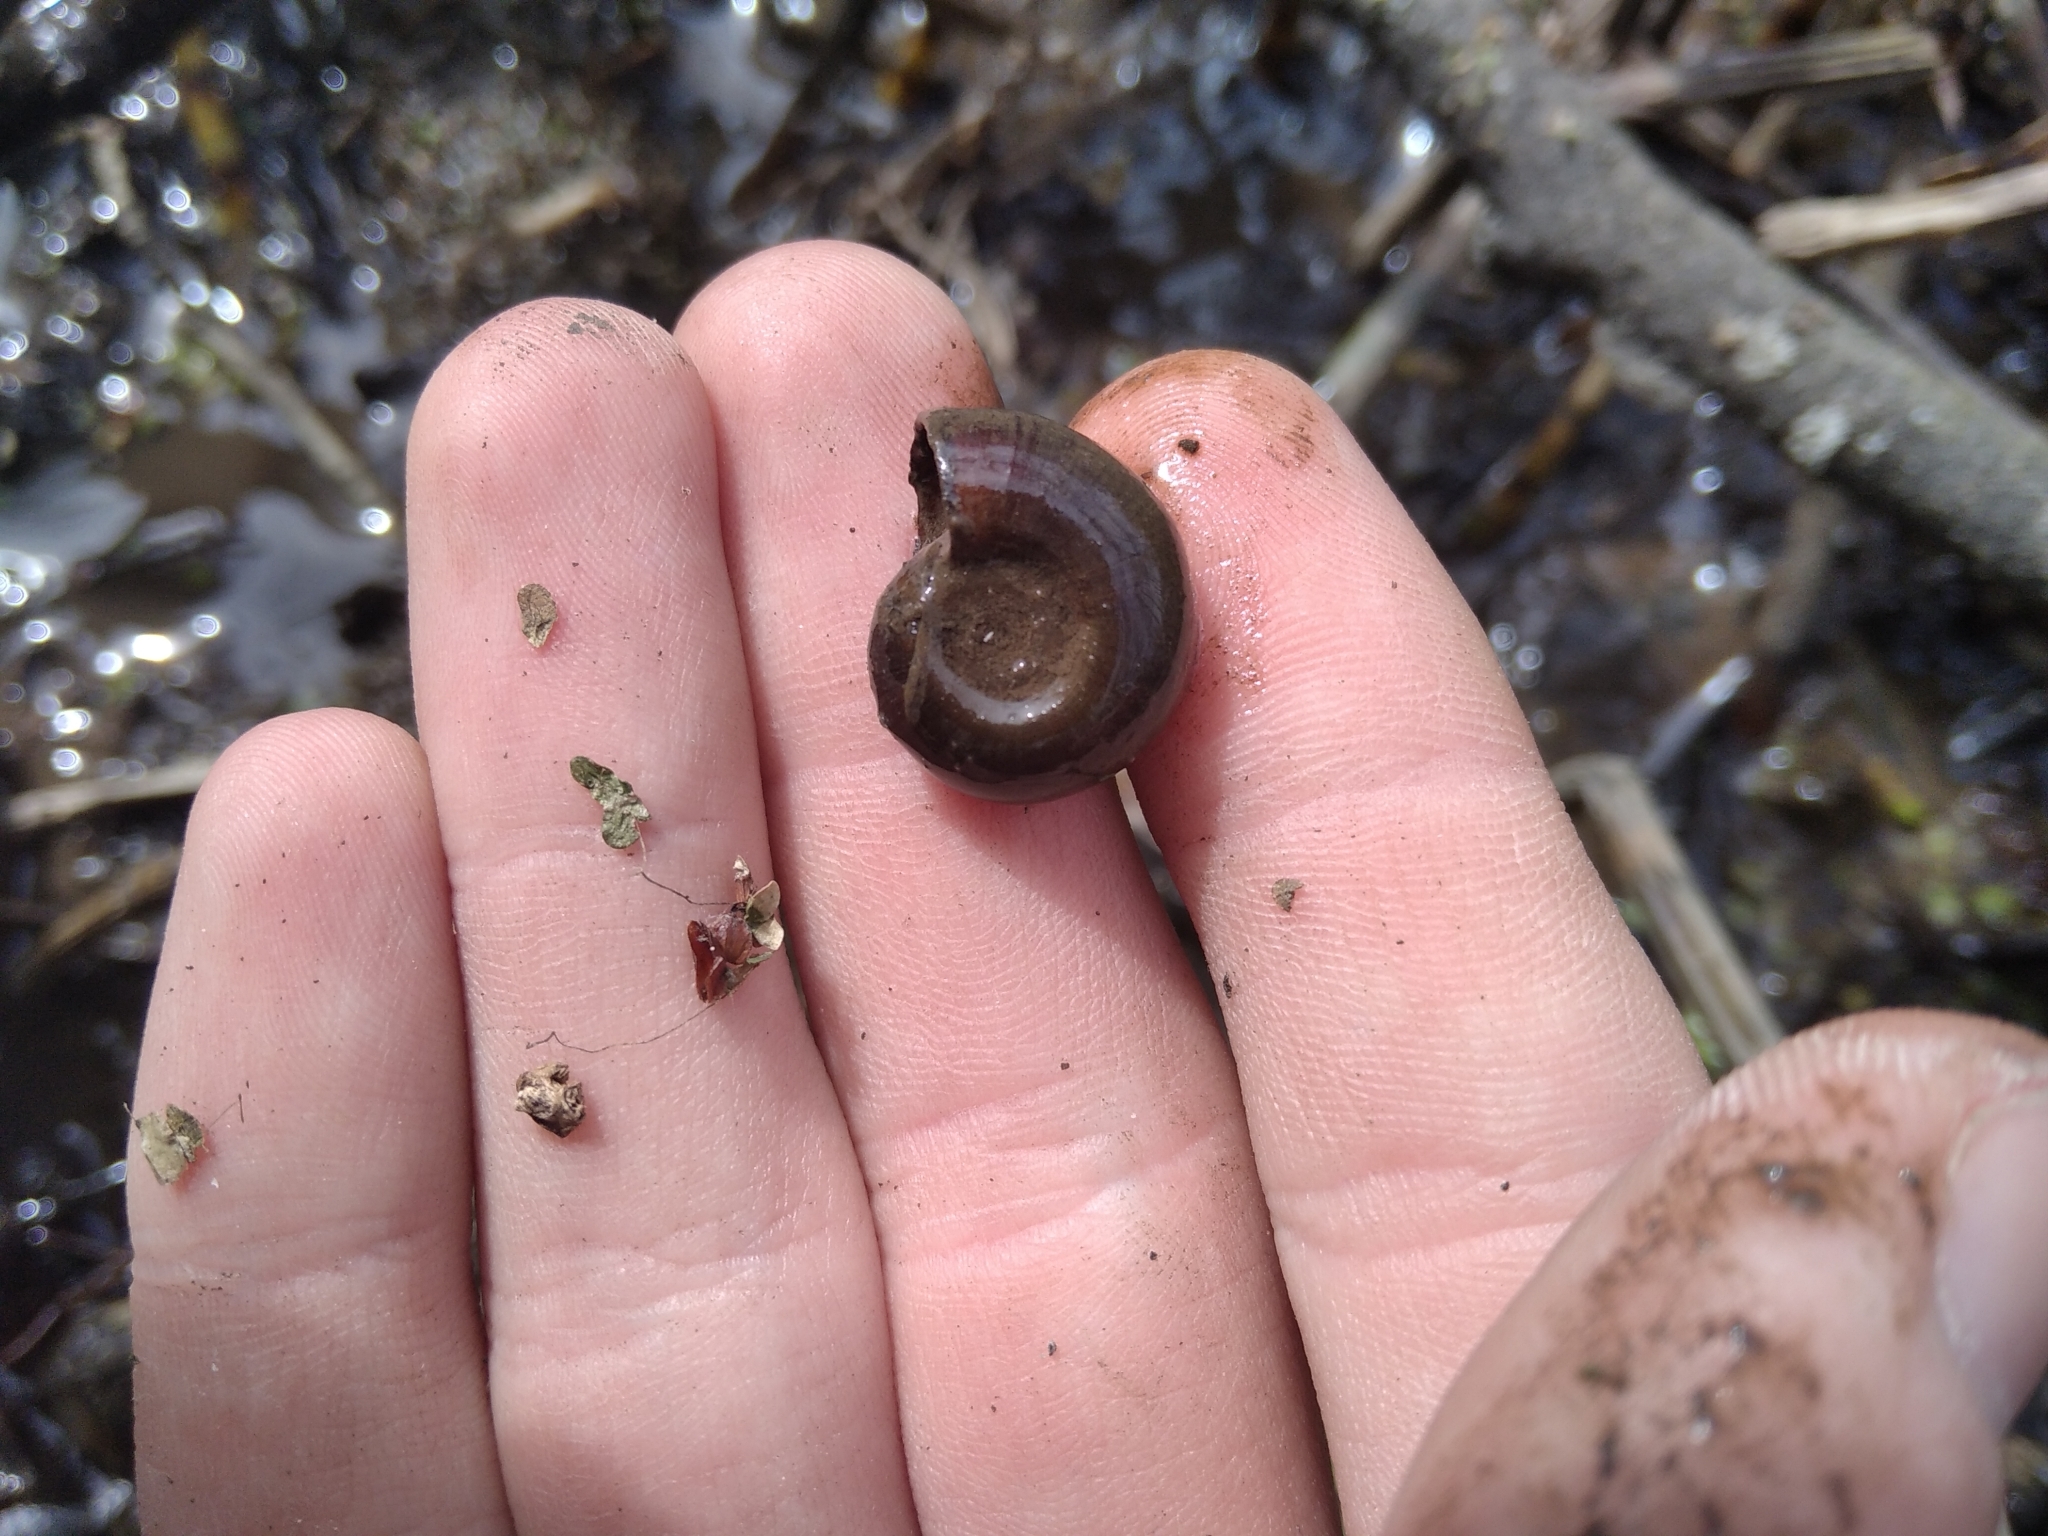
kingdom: Animalia
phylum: Mollusca
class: Gastropoda
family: Planorbidae
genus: Planorbarius
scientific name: Planorbarius corneus
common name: Great ramshorn
